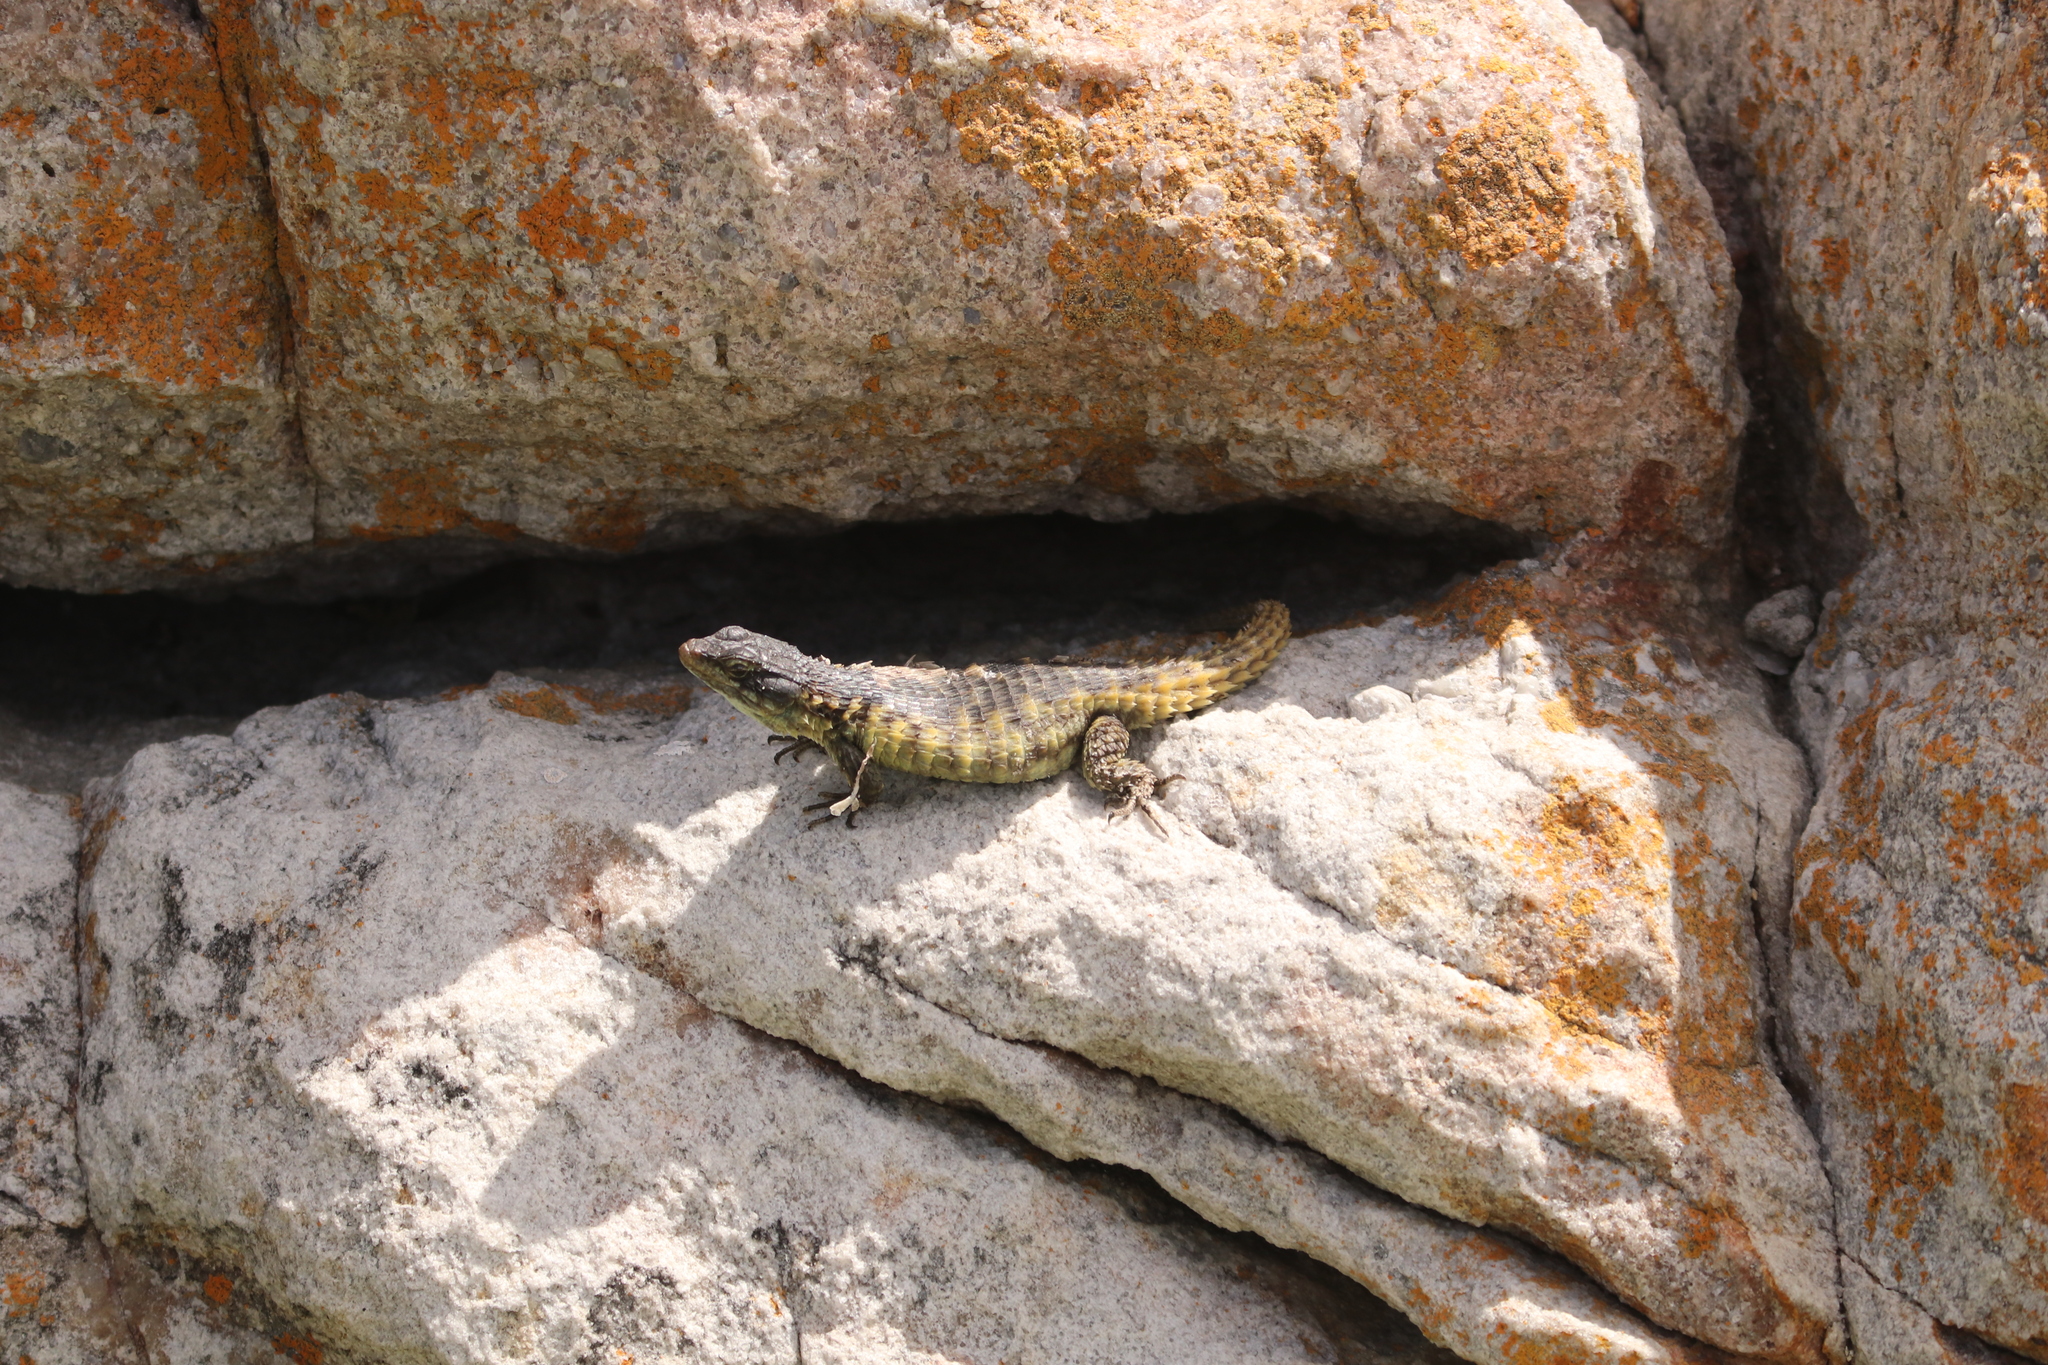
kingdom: Animalia
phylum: Chordata
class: Squamata
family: Cordylidae
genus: Cordylus
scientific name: Cordylus cordylus
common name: Cape girdled lizard
